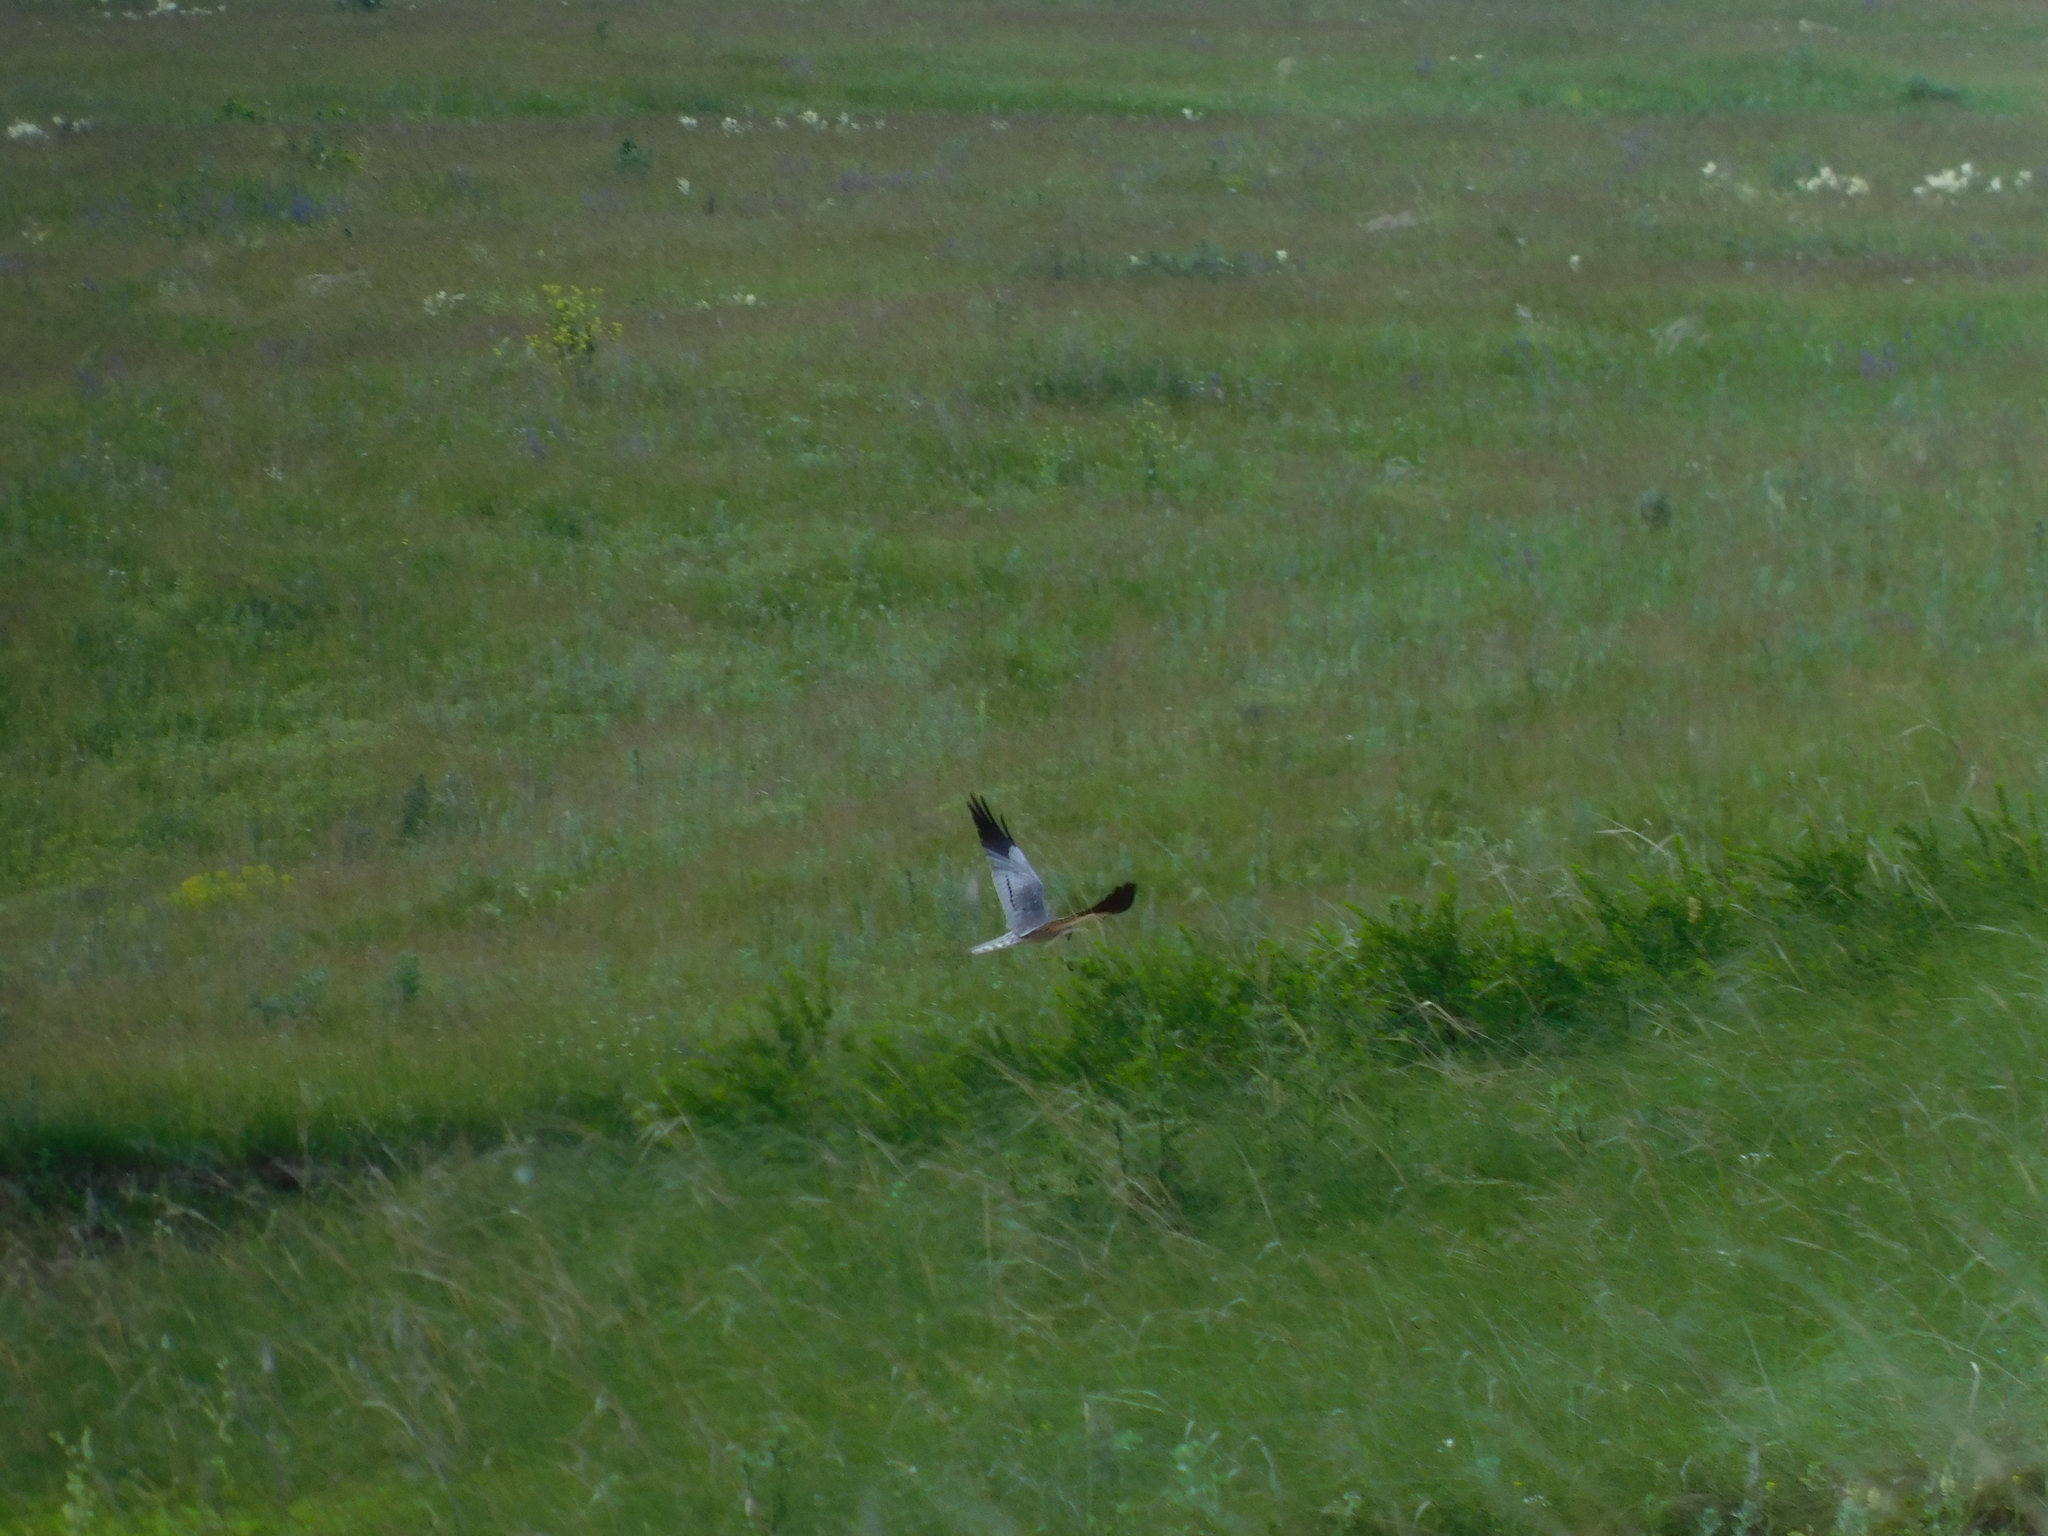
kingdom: Animalia
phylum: Chordata
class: Aves
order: Accipitriformes
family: Accipitridae
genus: Circus
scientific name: Circus pygargus
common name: Montagu's harrier
